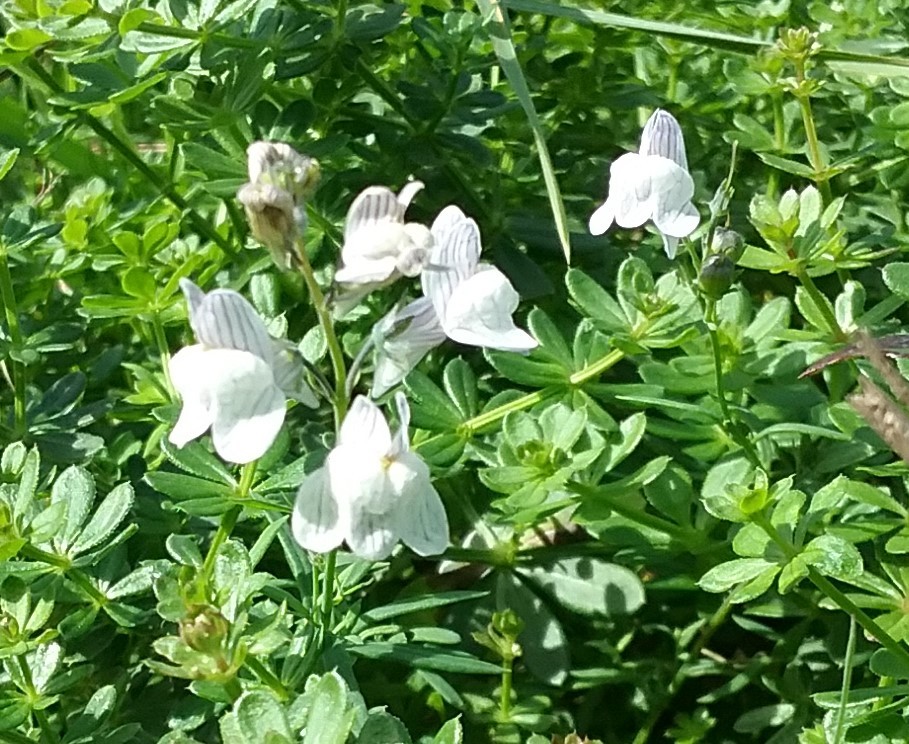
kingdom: Plantae
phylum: Tracheophyta
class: Magnoliopsida
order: Lamiales
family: Plantaginaceae
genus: Linaria
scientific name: Linaria repens
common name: Pale toadflax
